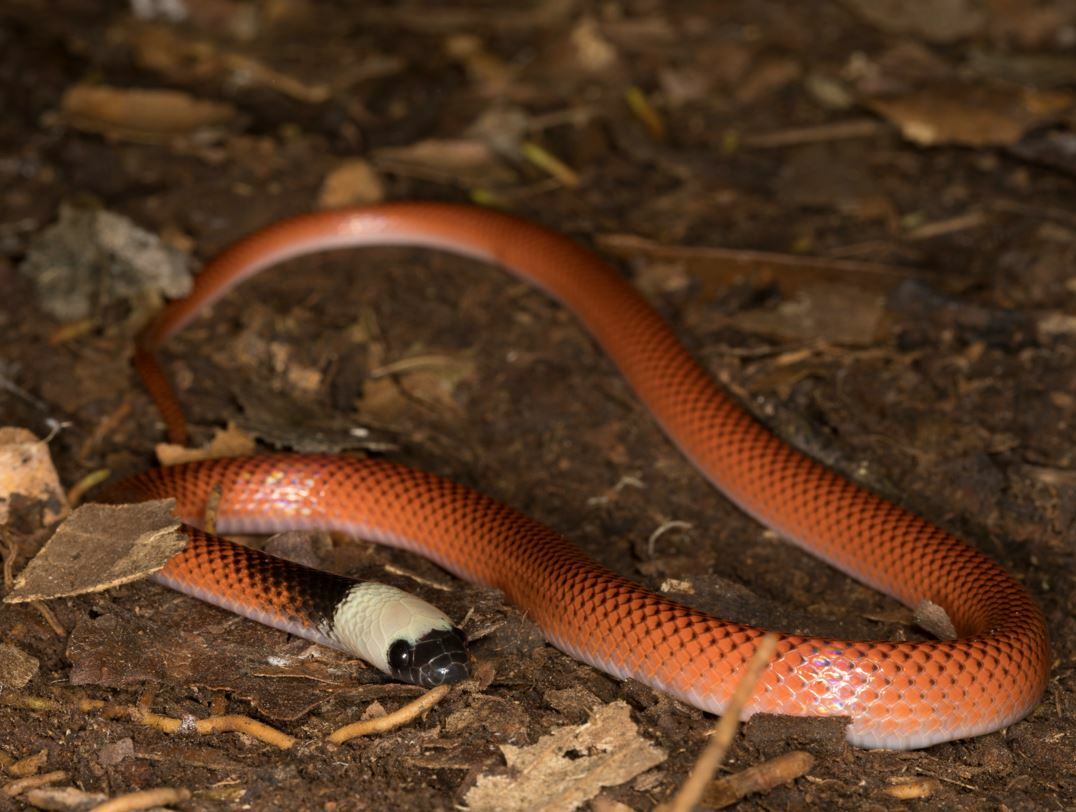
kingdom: Animalia
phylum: Chordata
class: Squamata
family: Colubridae
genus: Drepanoides
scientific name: Drepanoides anomalus
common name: Black-collared snake
